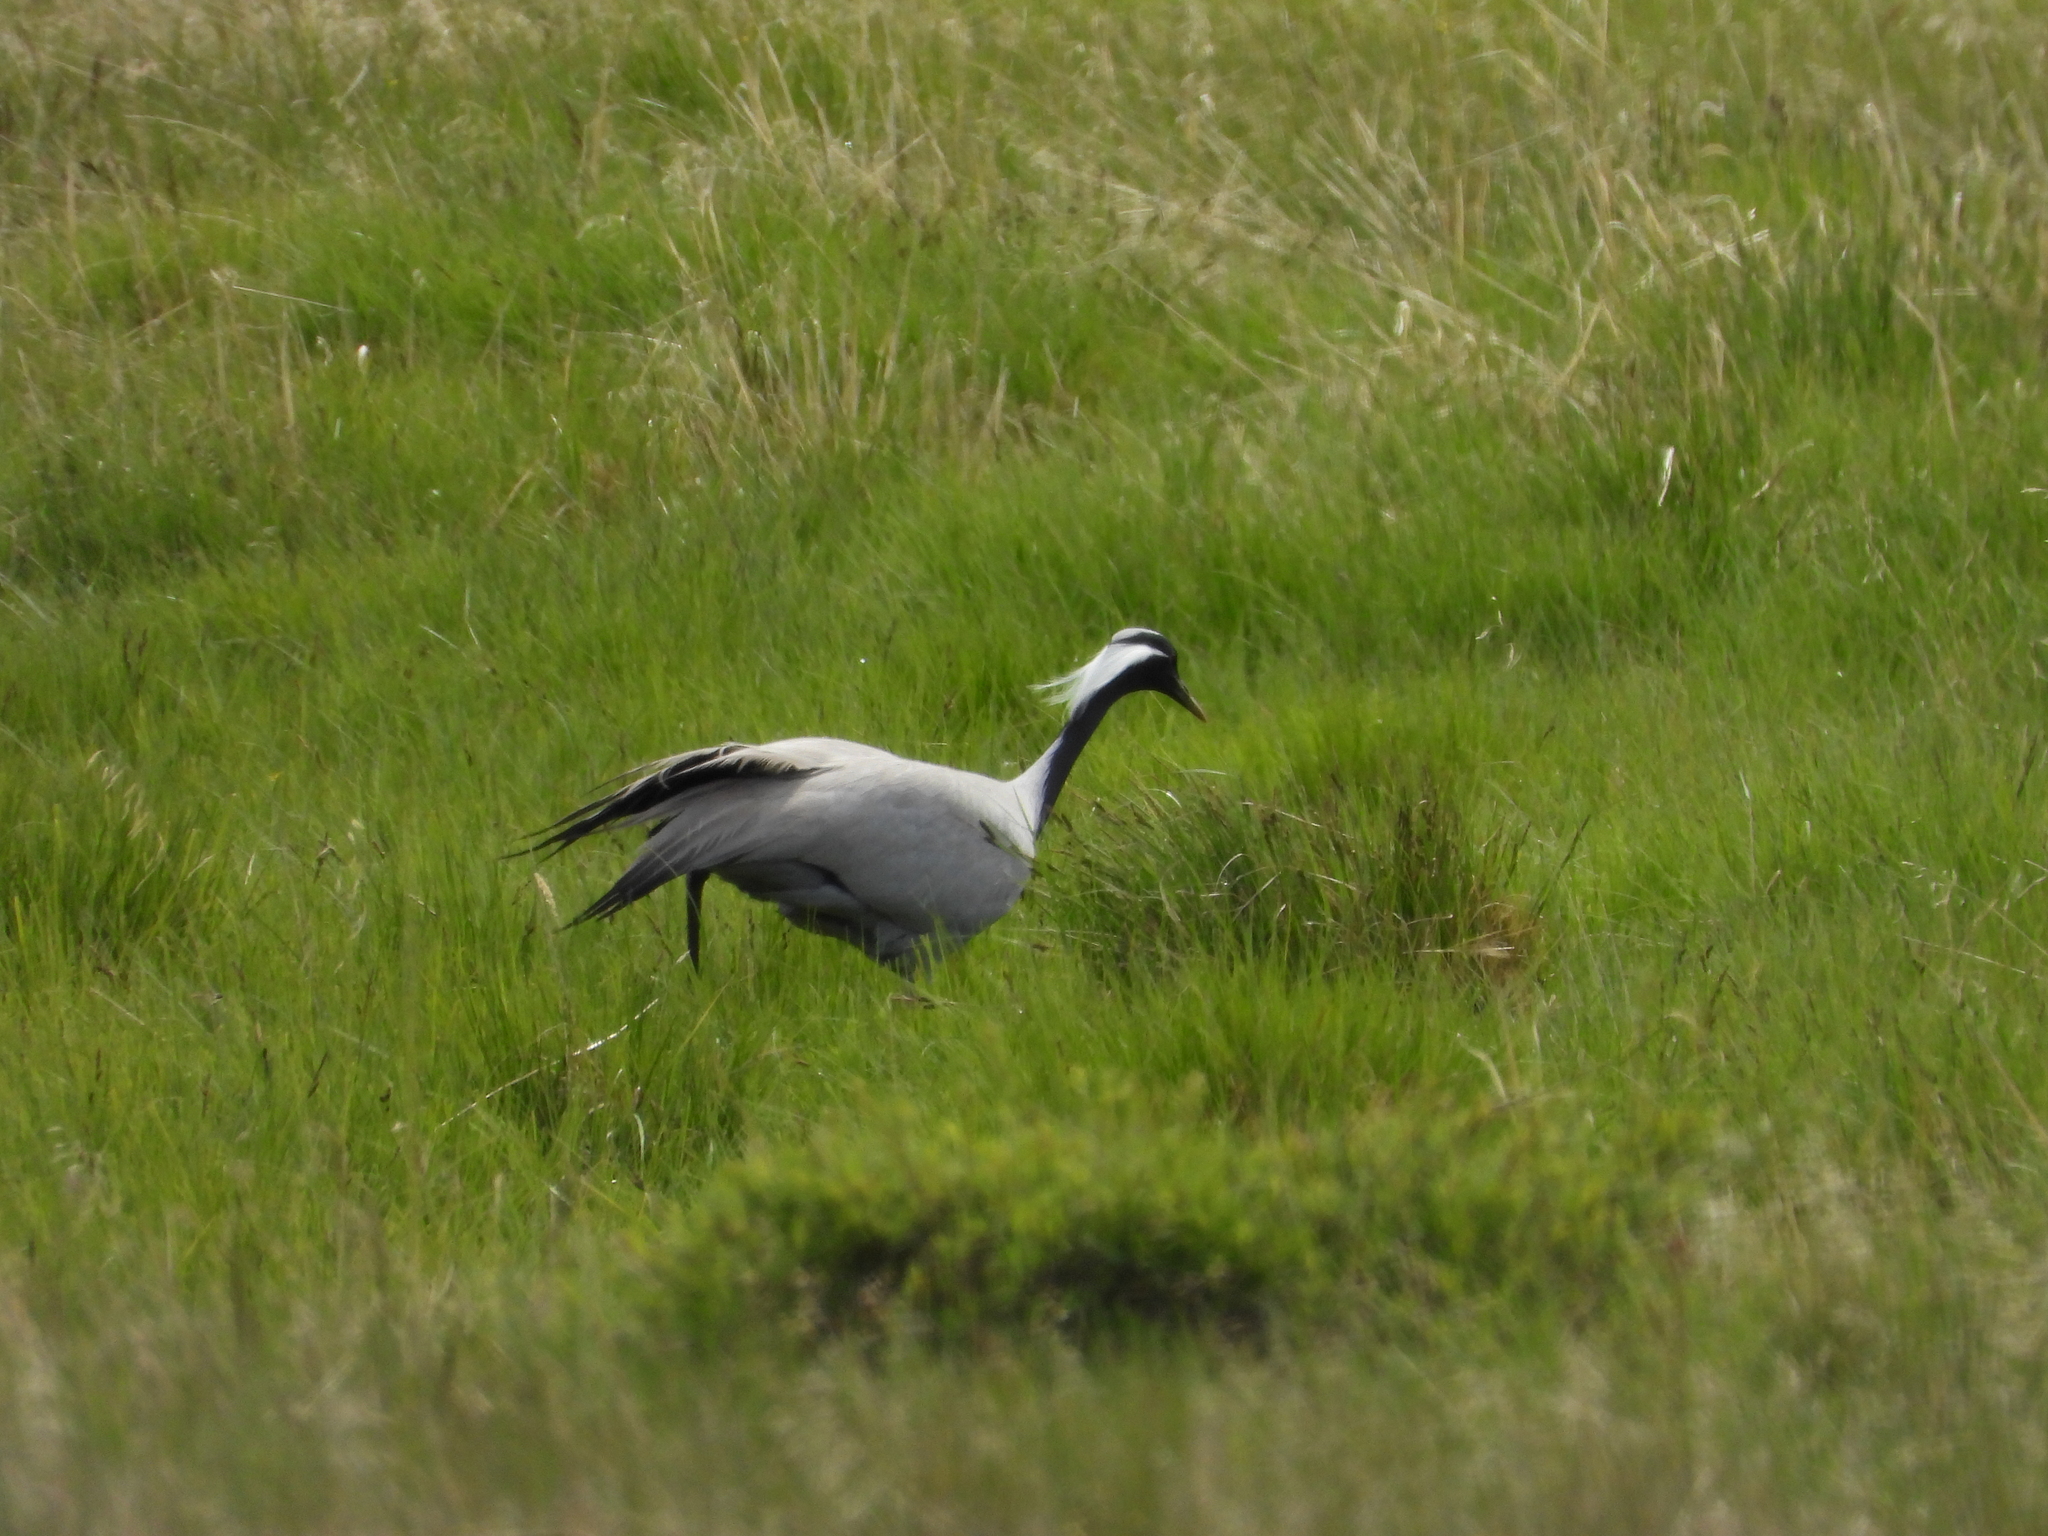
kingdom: Animalia
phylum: Chordata
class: Aves
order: Gruiformes
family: Gruidae
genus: Anthropoides
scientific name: Anthropoides virgo
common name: Demoiselle crane
